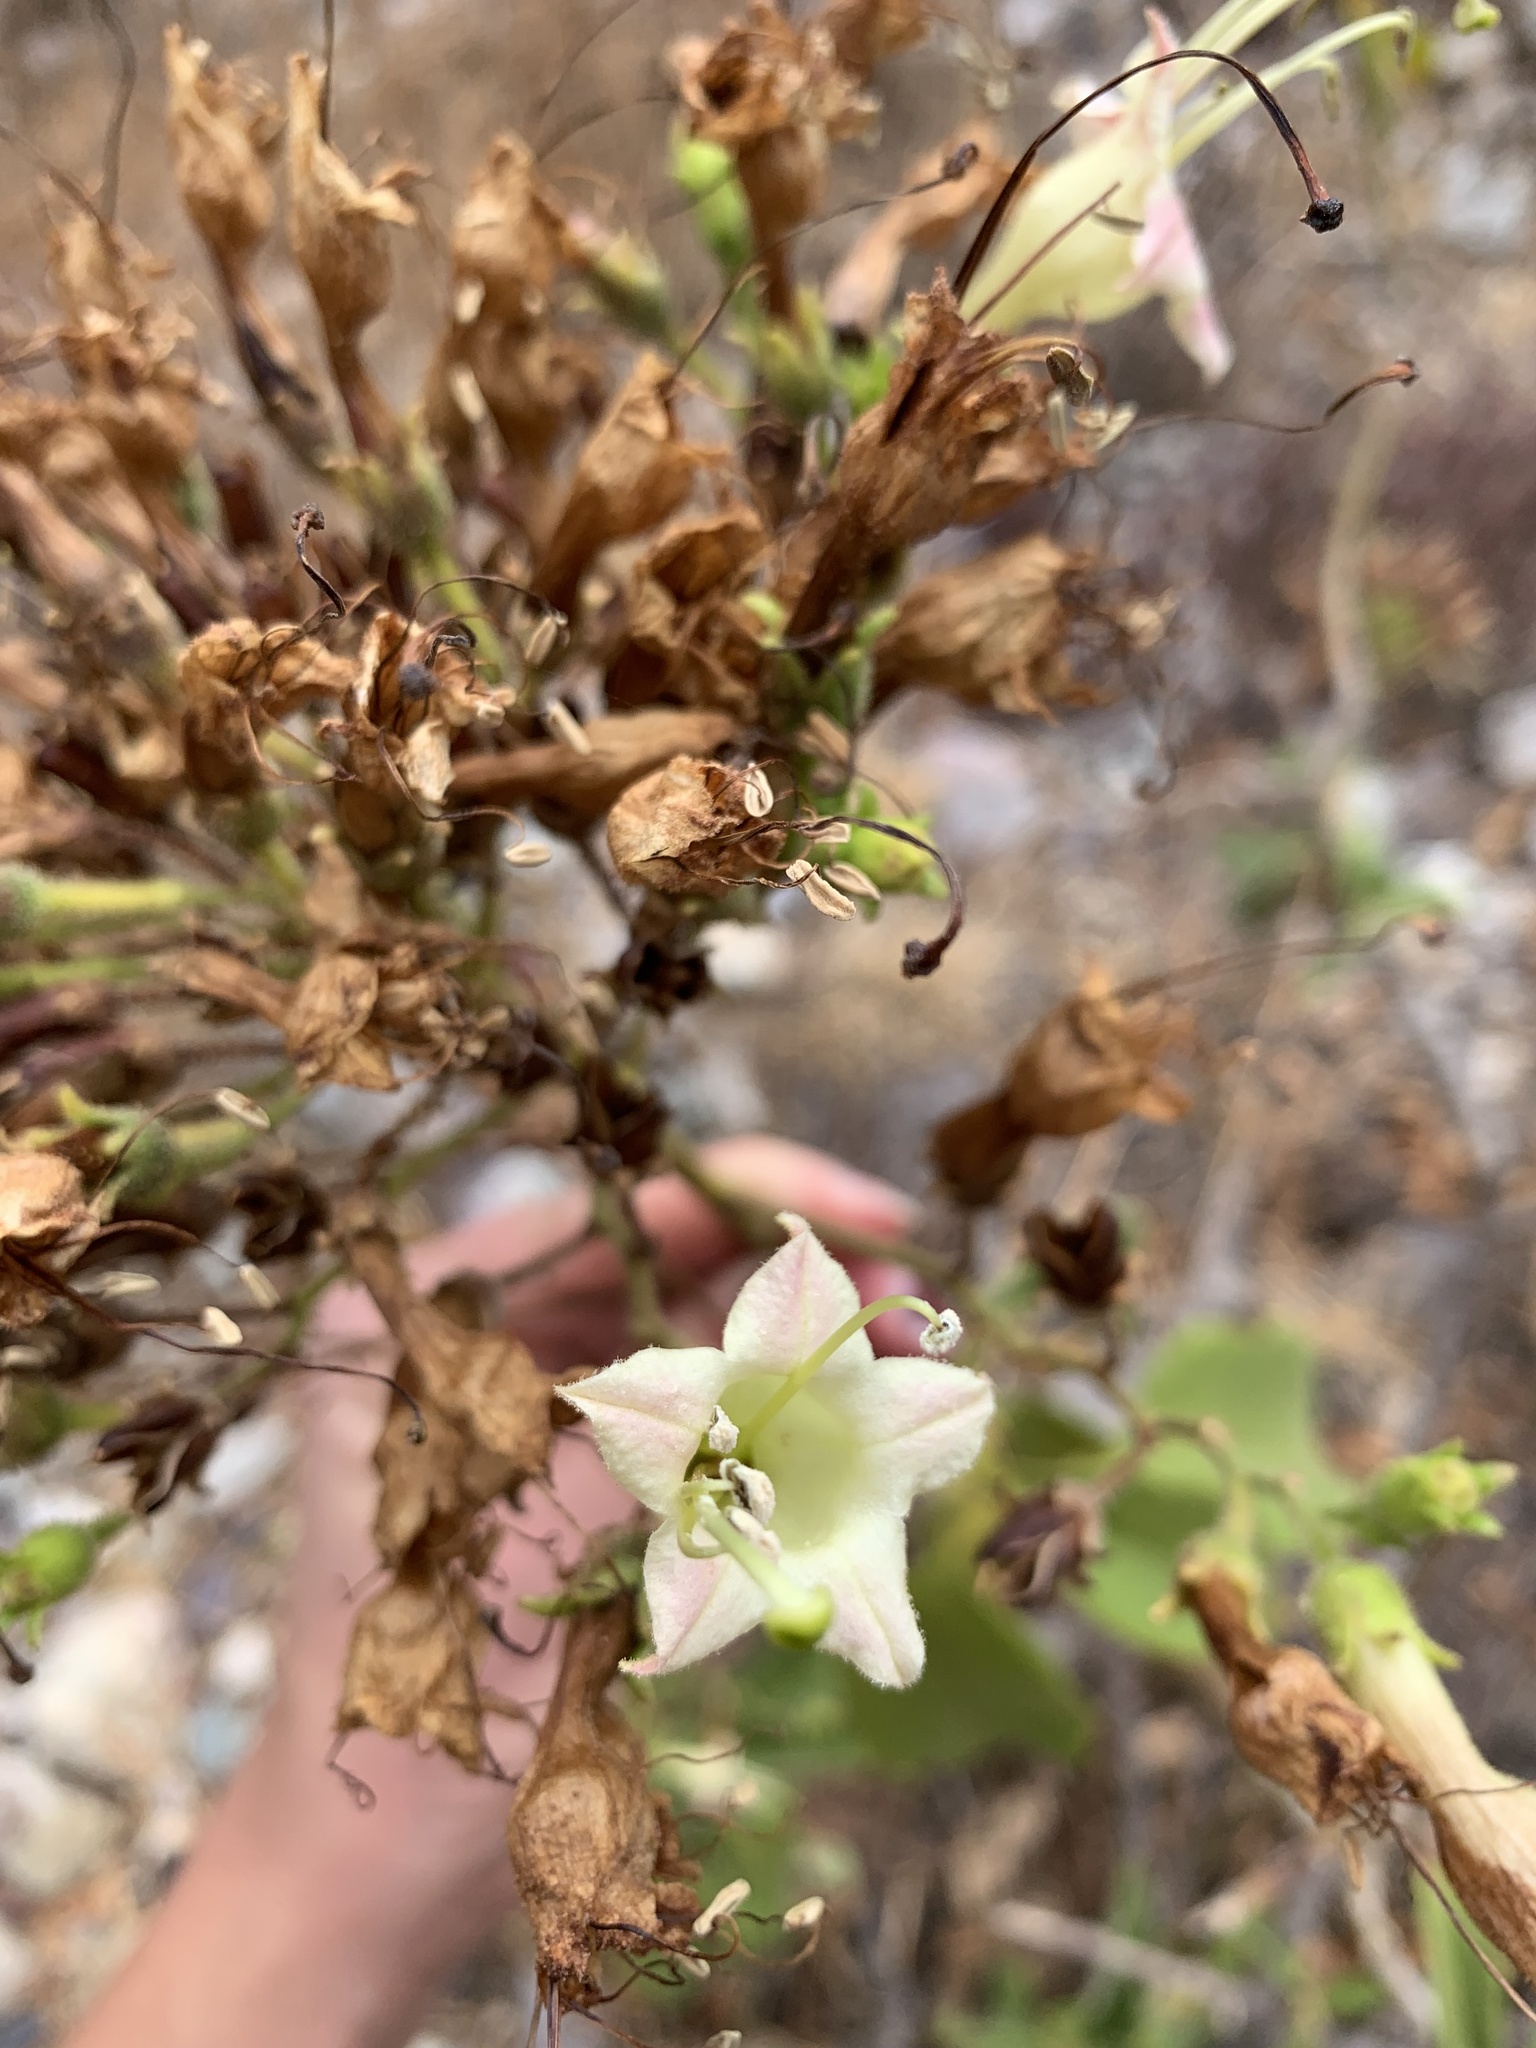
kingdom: Plantae
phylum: Tracheophyta
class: Magnoliopsida
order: Solanales
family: Solanaceae
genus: Nicotiana
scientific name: Nicotiana tomentosa
